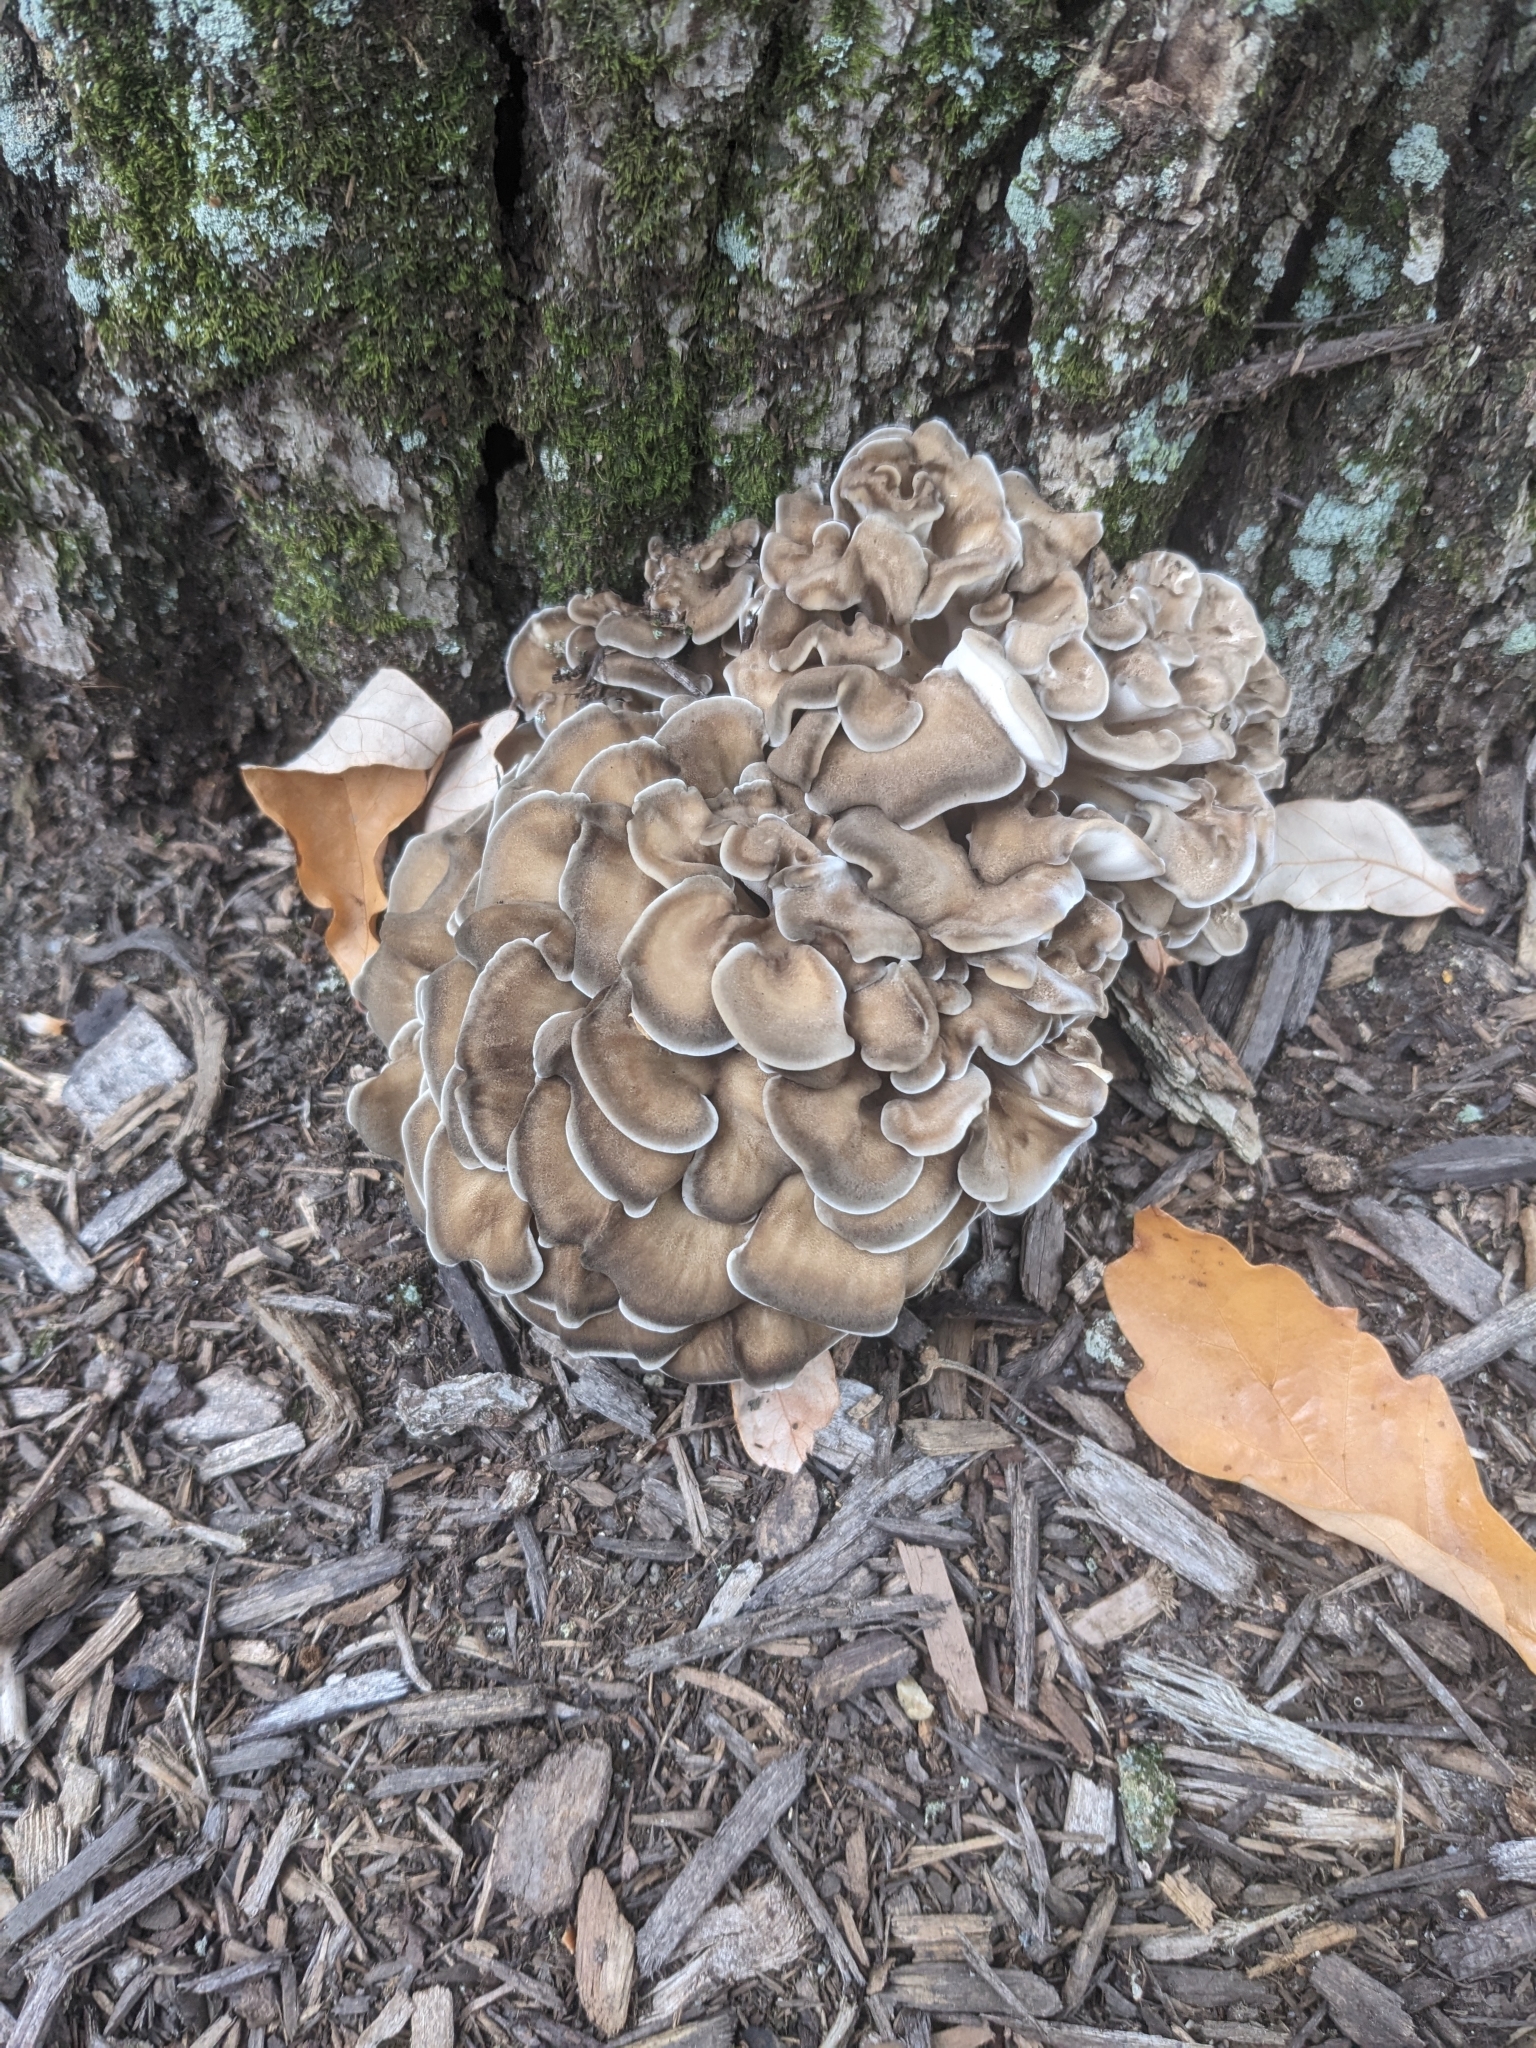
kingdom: Fungi
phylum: Basidiomycota
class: Agaricomycetes
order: Polyporales
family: Grifolaceae
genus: Grifola
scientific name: Grifola frondosa
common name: Hen of the woods
